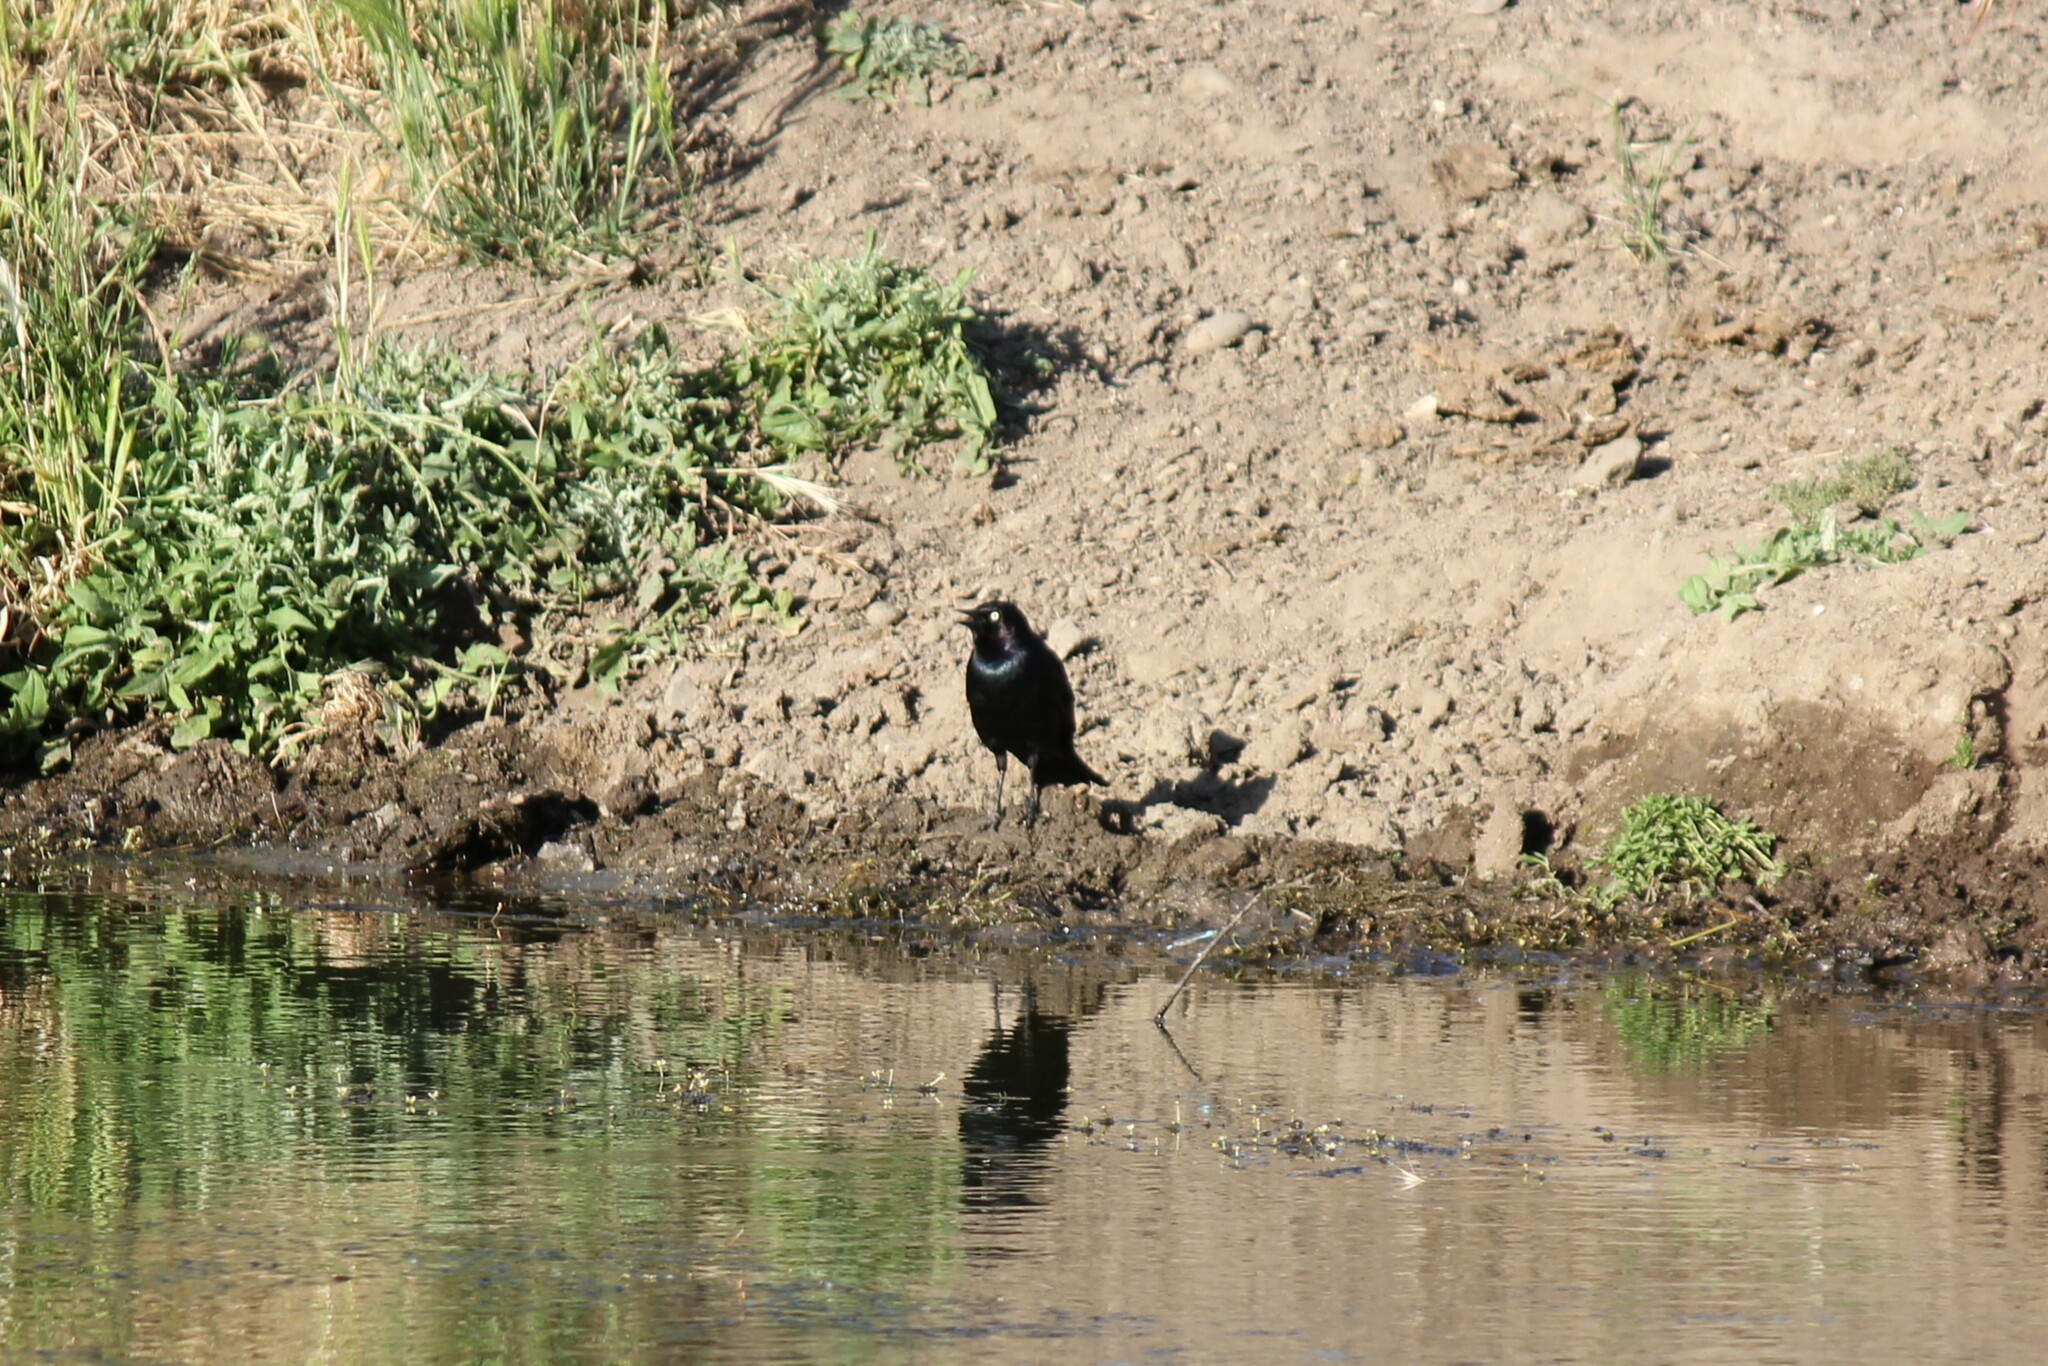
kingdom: Animalia
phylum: Chordata
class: Aves
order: Passeriformes
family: Icteridae
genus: Euphagus
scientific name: Euphagus cyanocephalus
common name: Brewer's blackbird
